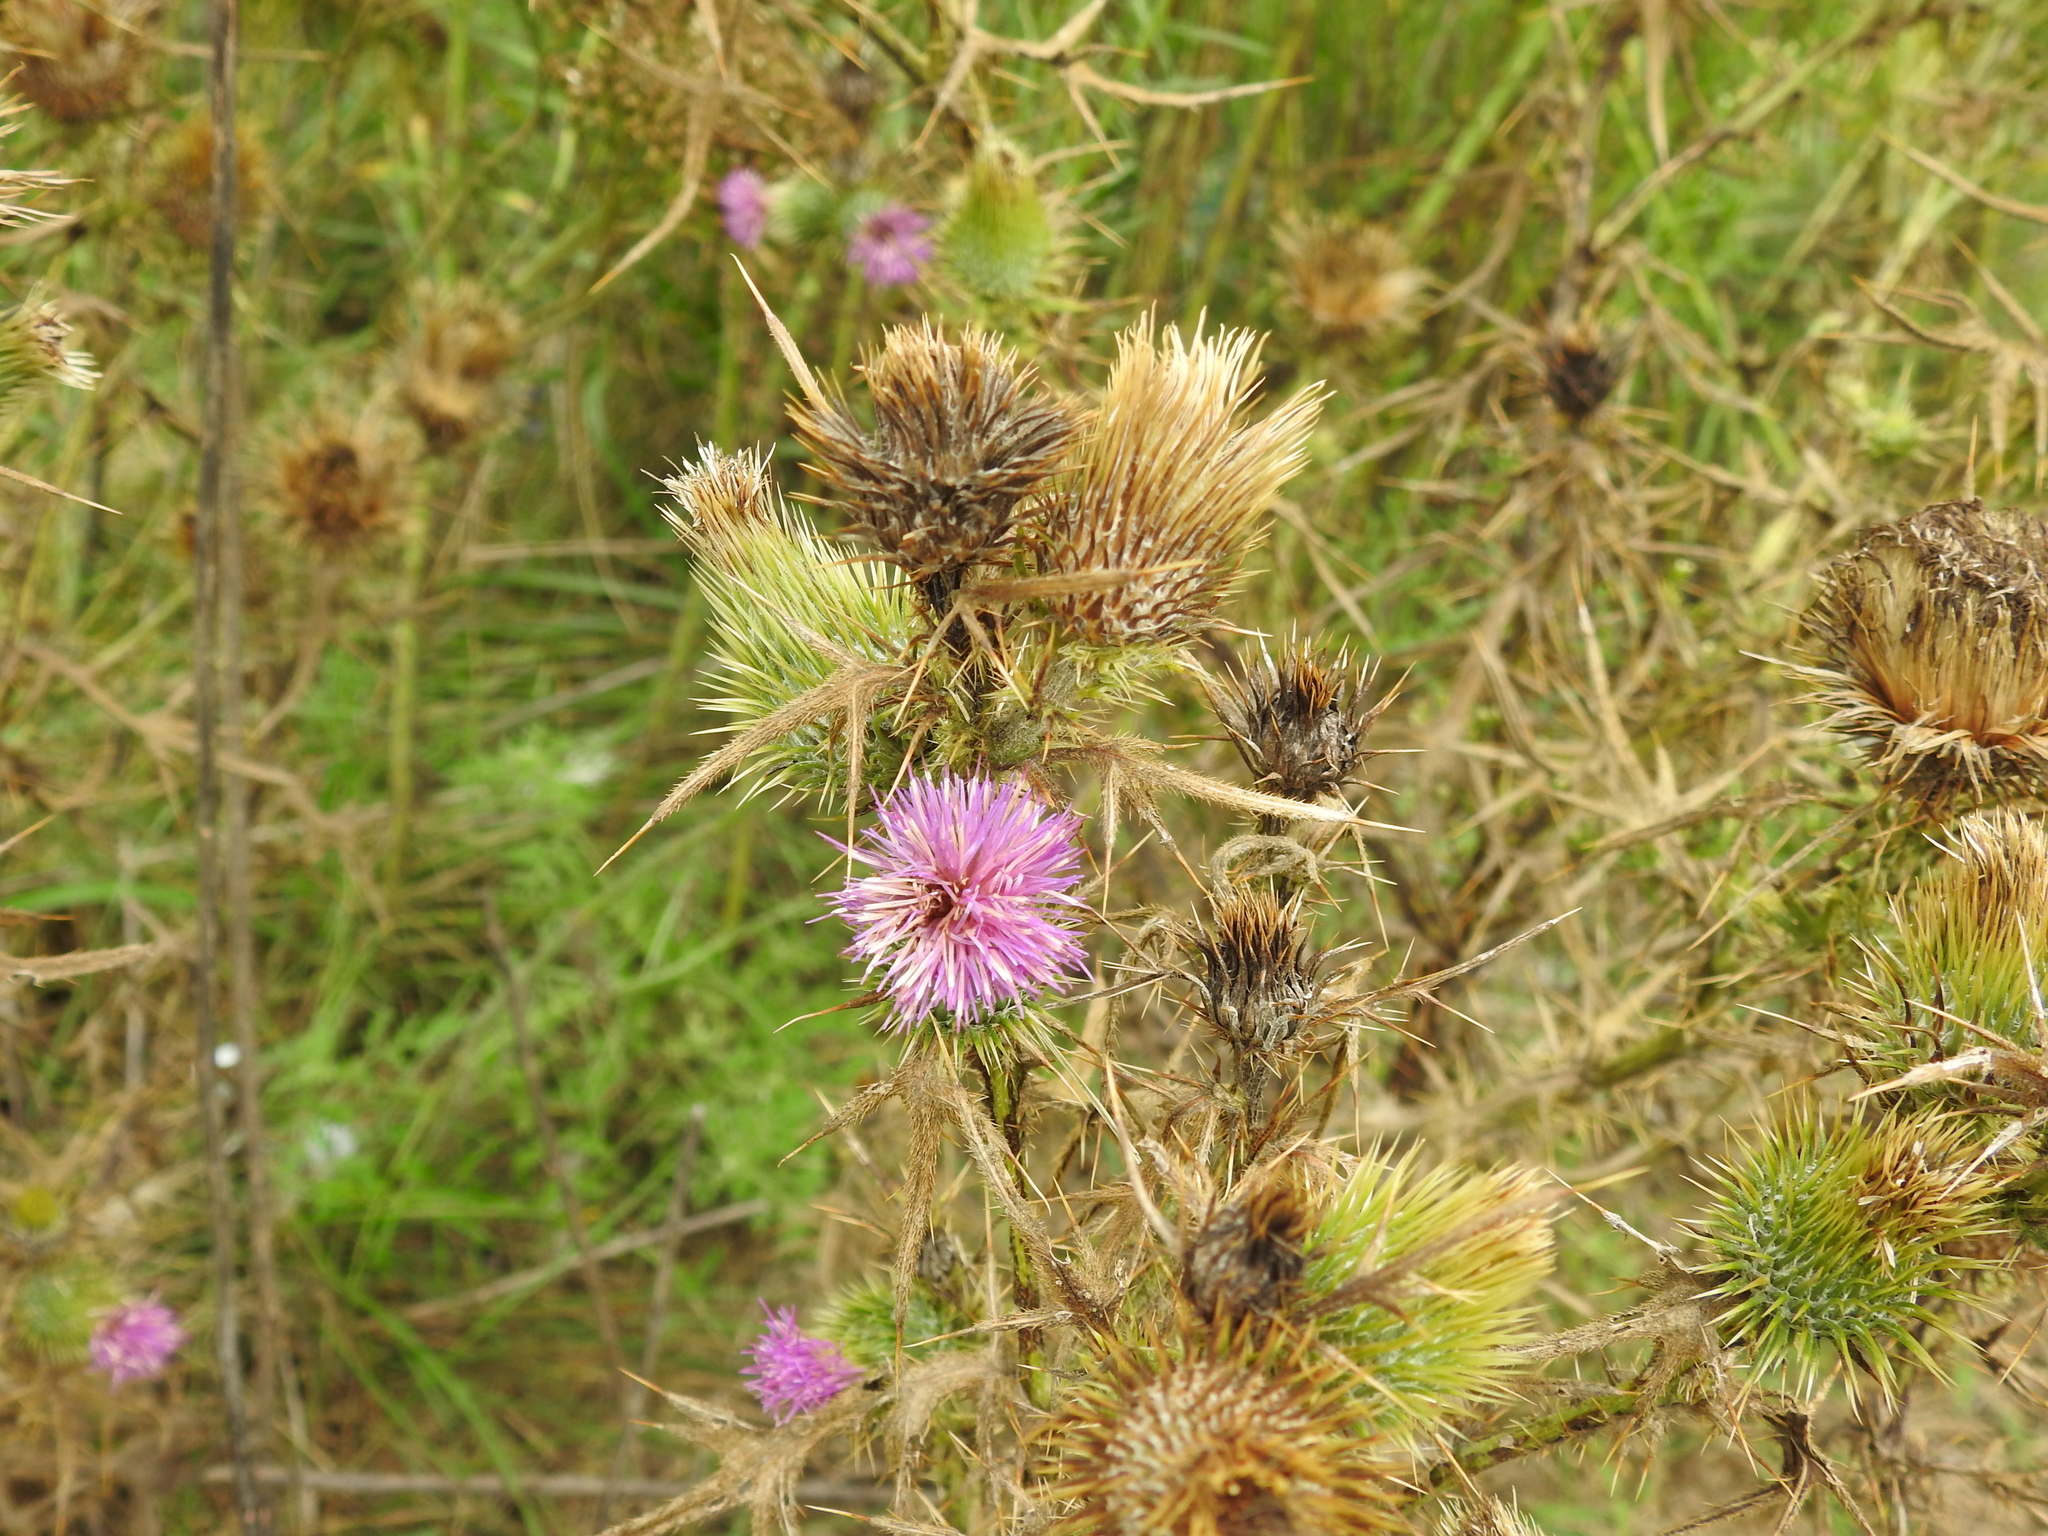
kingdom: Plantae
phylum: Tracheophyta
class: Magnoliopsida
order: Asterales
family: Asteraceae
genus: Cirsium
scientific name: Cirsium vulgare
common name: Bull thistle
